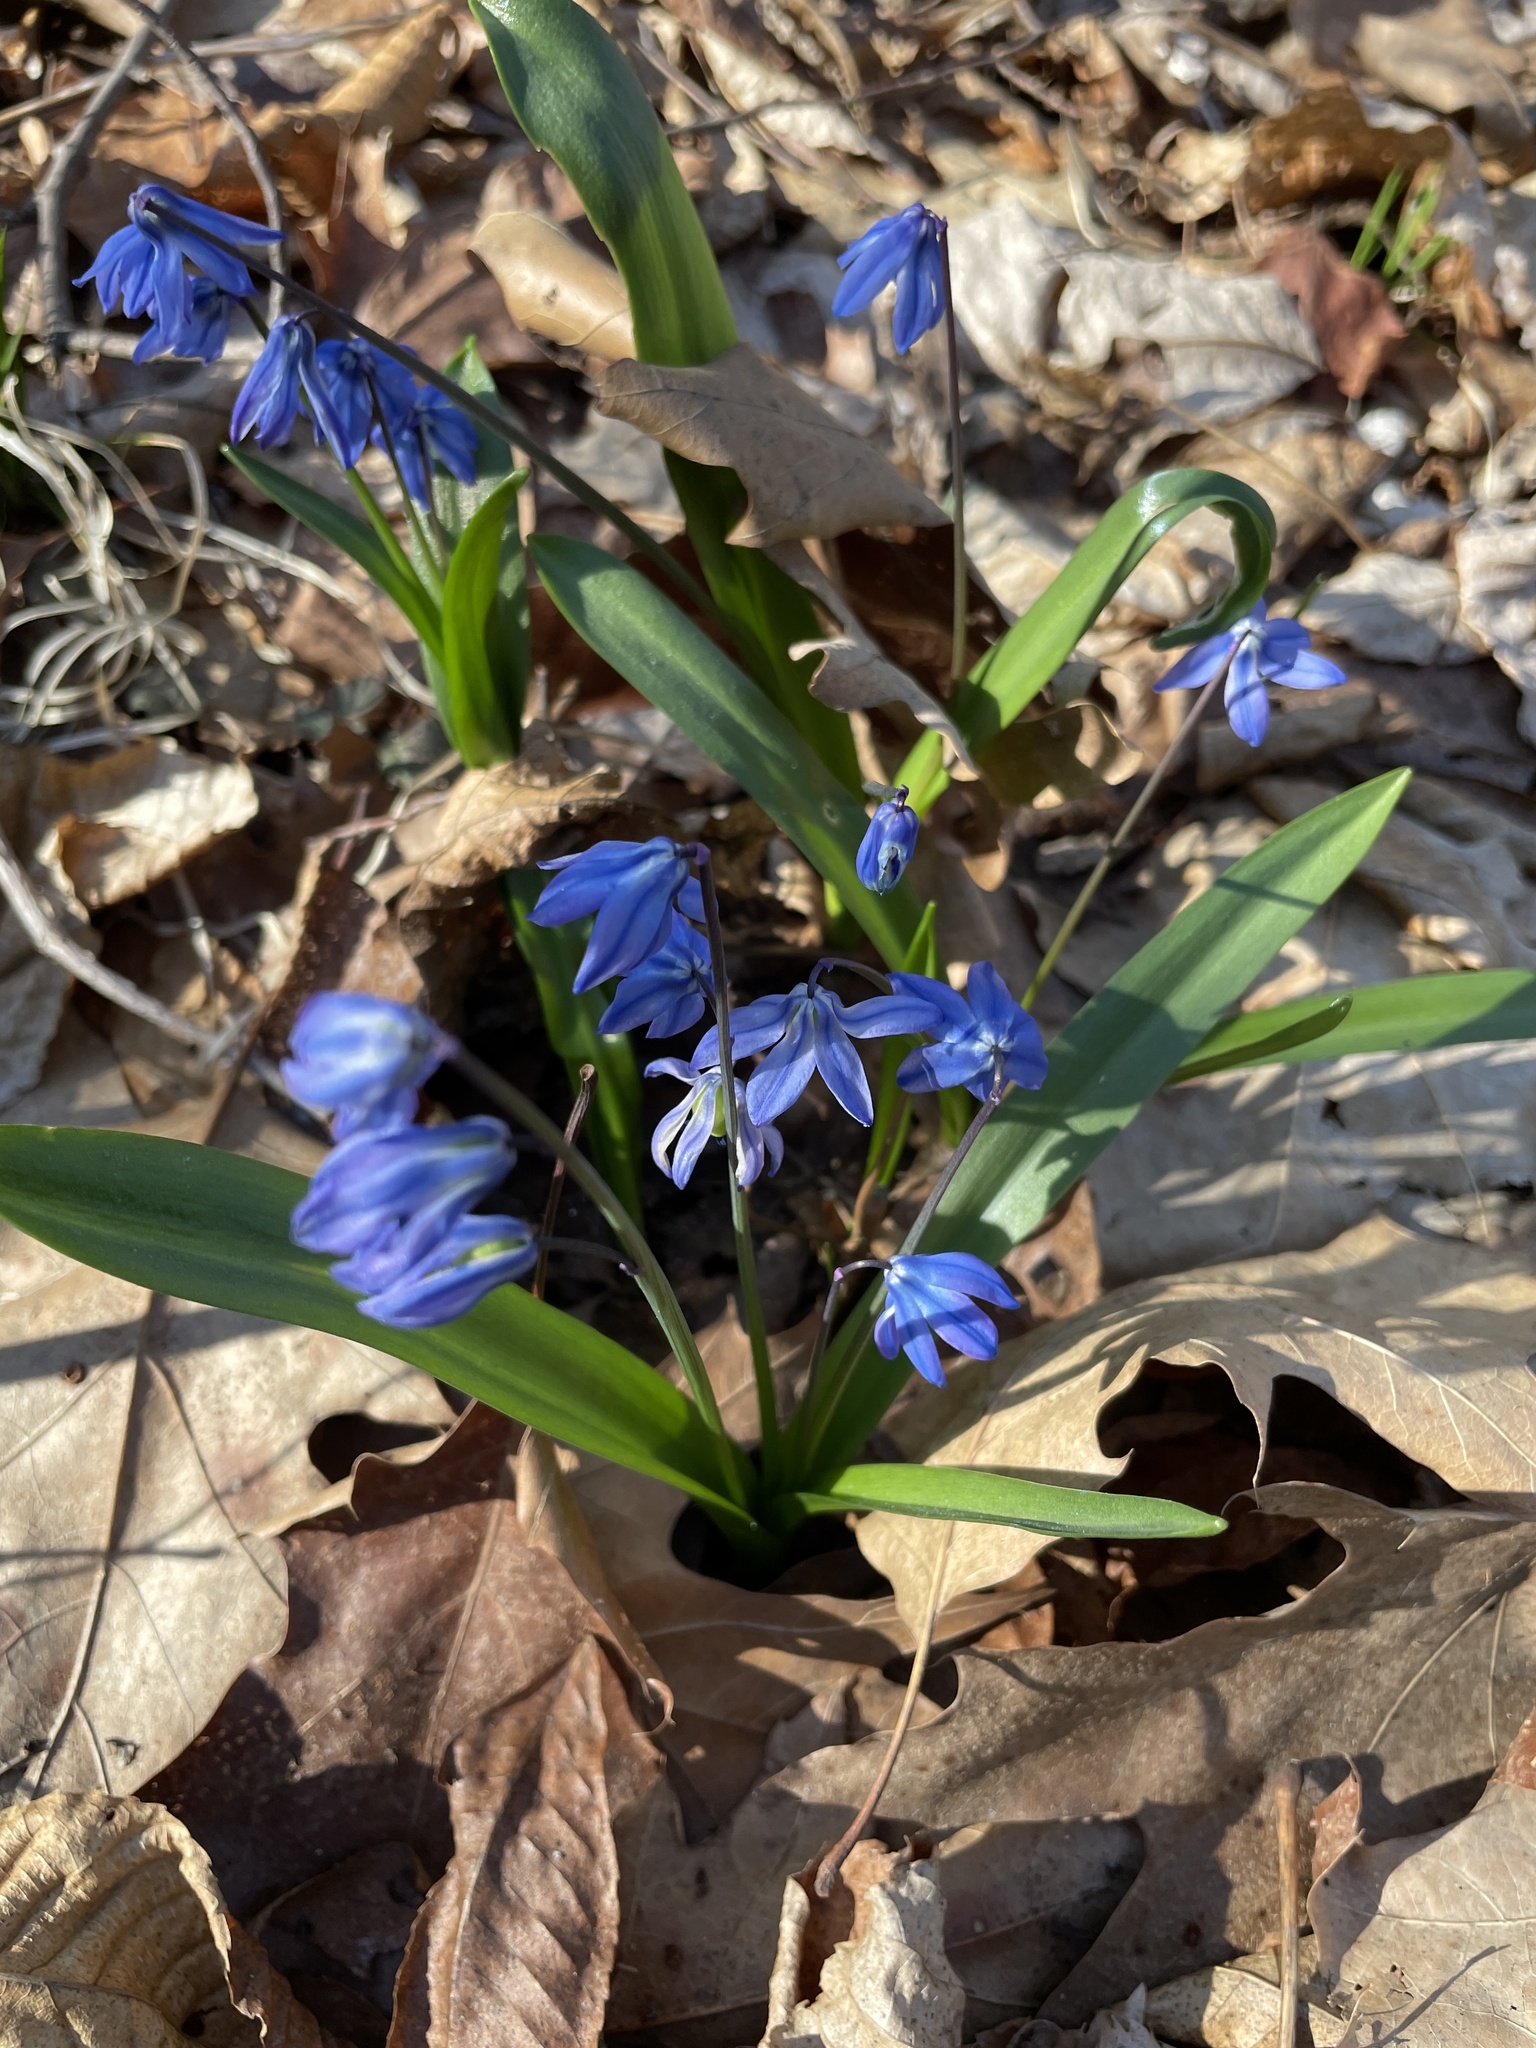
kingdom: Plantae
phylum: Tracheophyta
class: Liliopsida
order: Asparagales
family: Asparagaceae
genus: Scilla
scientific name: Scilla siberica
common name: Siberian squill
